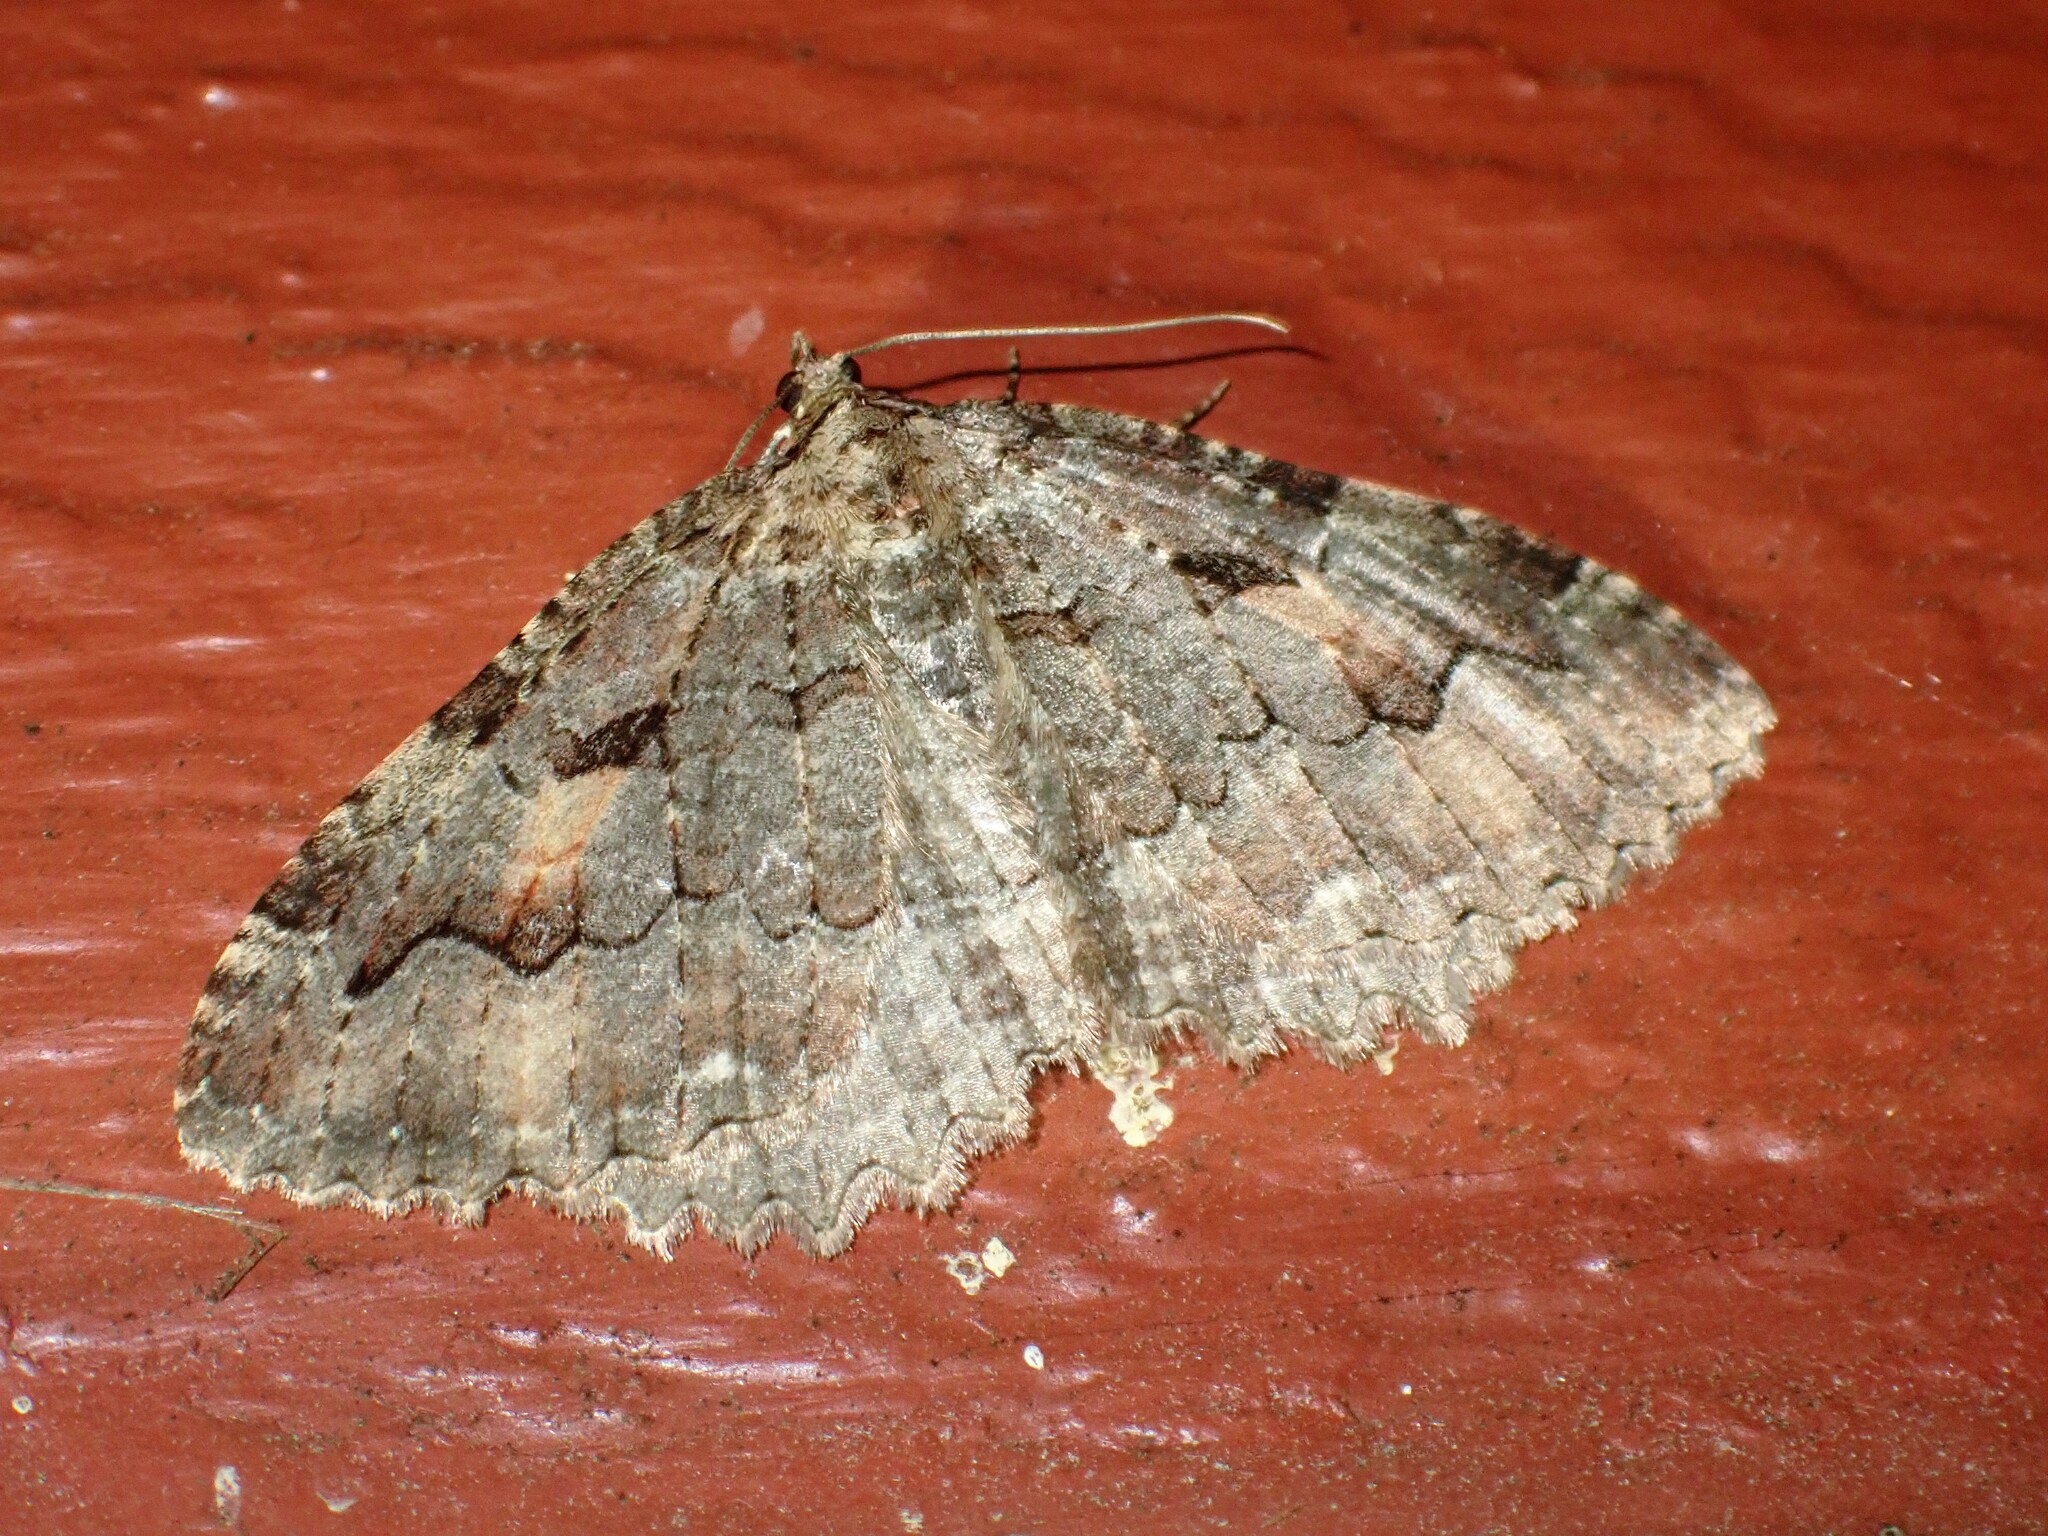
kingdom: Animalia
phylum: Arthropoda
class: Insecta
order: Lepidoptera
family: Geometridae
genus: Triphosa
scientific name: Triphosa haesitata
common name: Tissue moth
